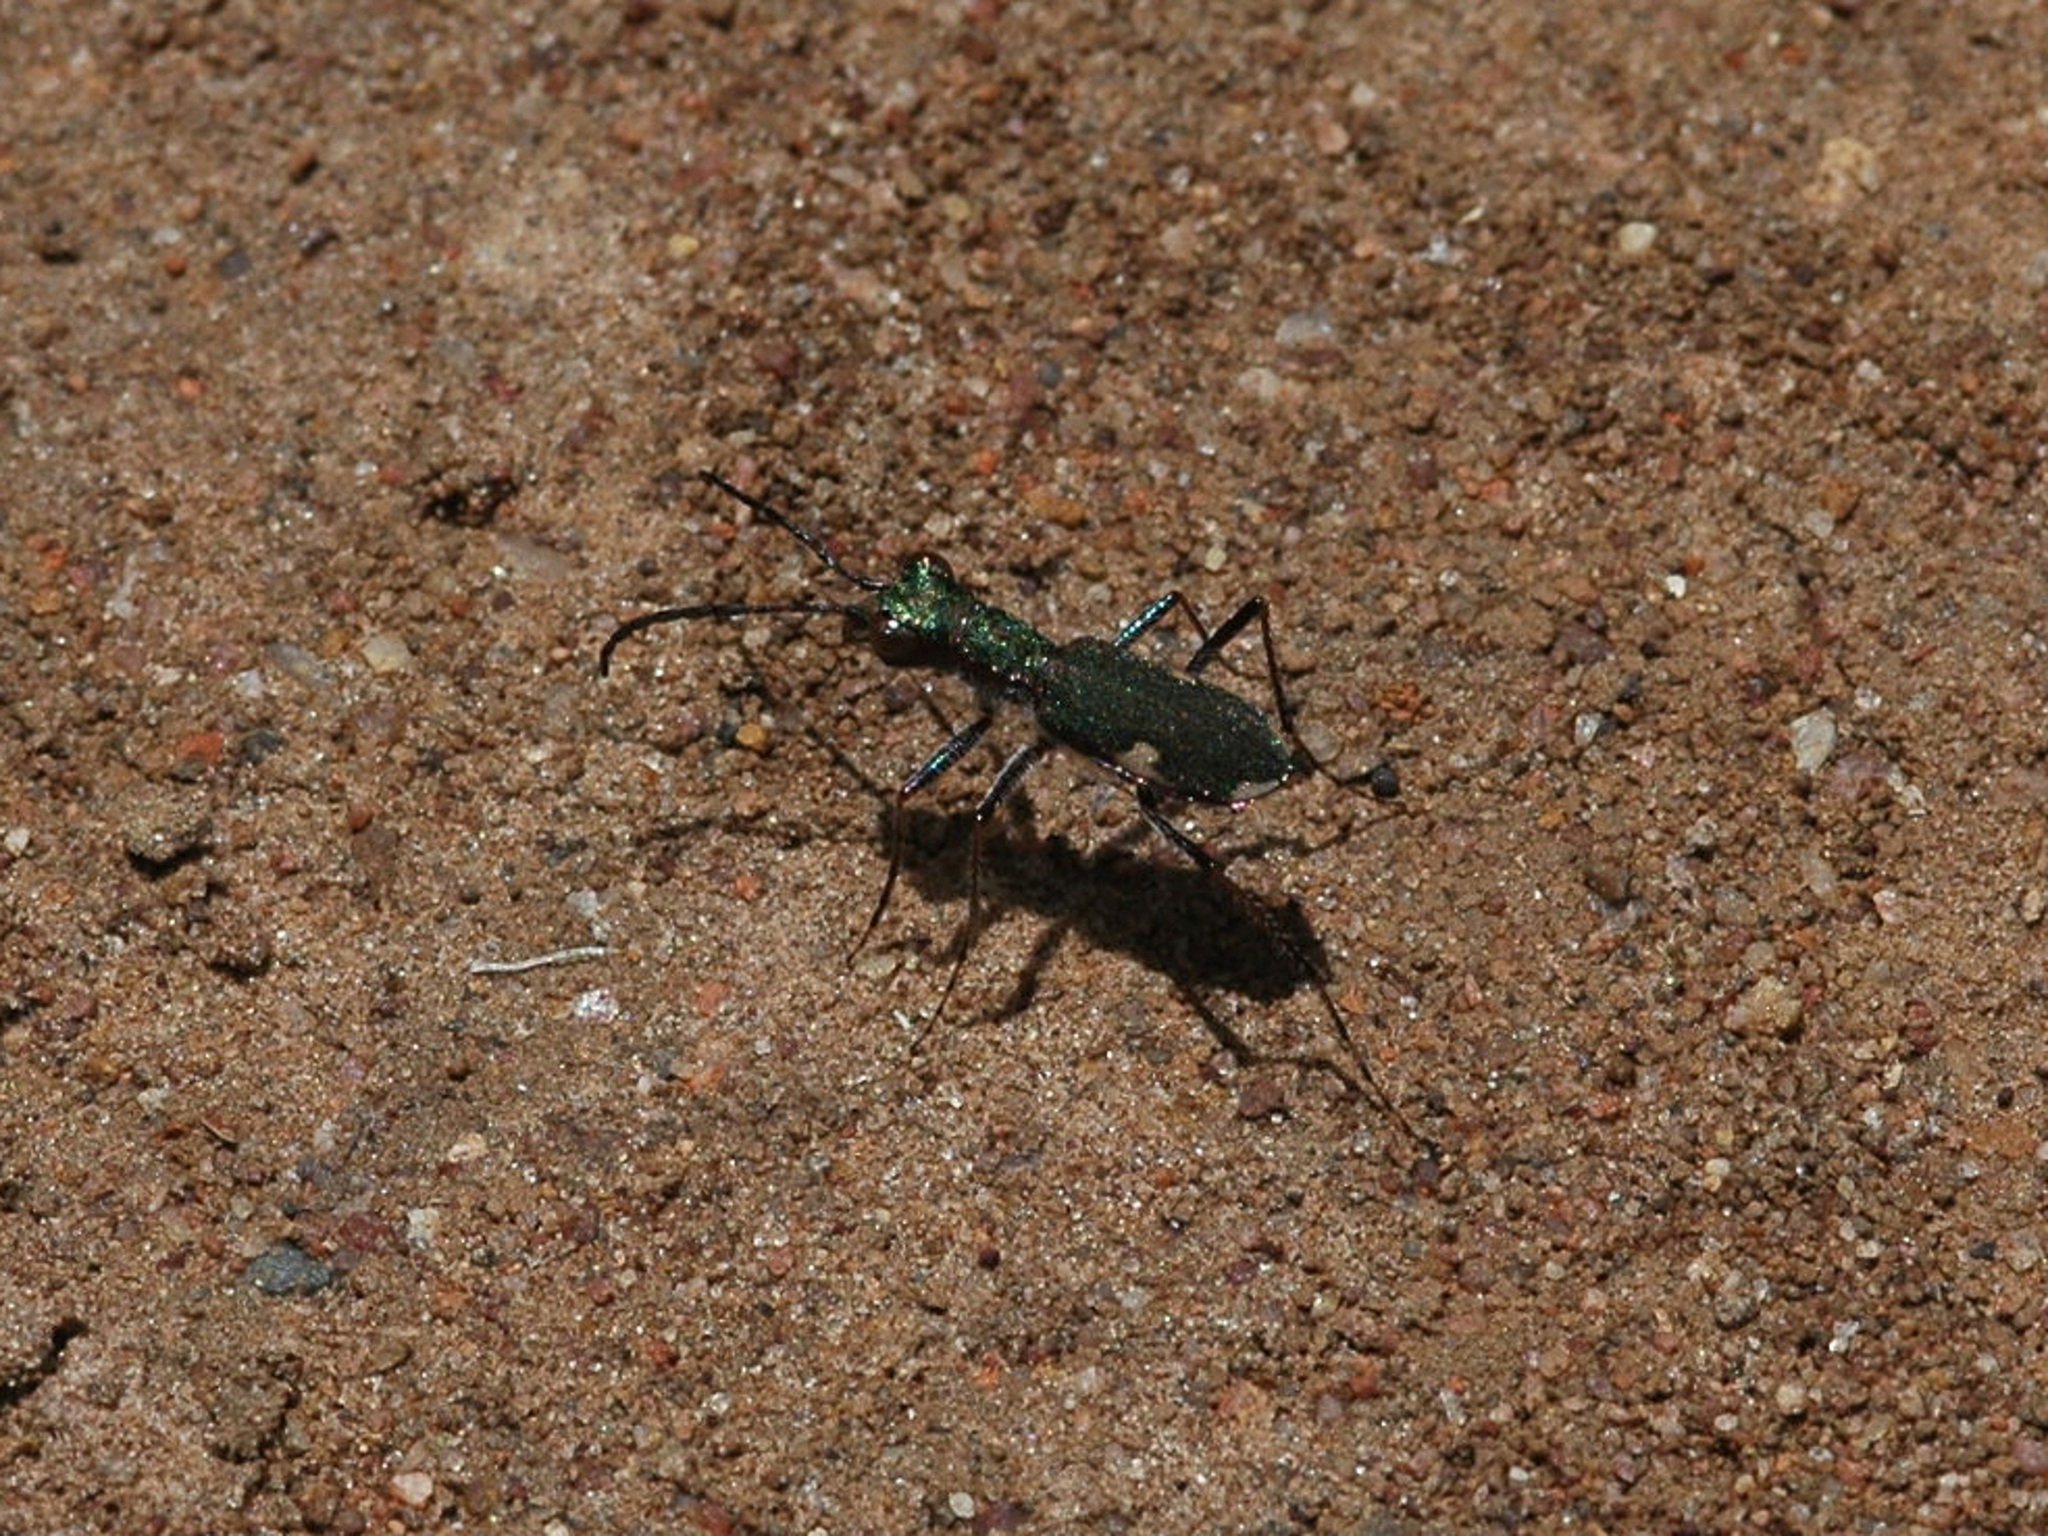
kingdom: Animalia
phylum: Arthropoda
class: Insecta
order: Coleoptera
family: Carabidae
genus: Bennigsenium
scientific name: Bennigsenium hauseranum
